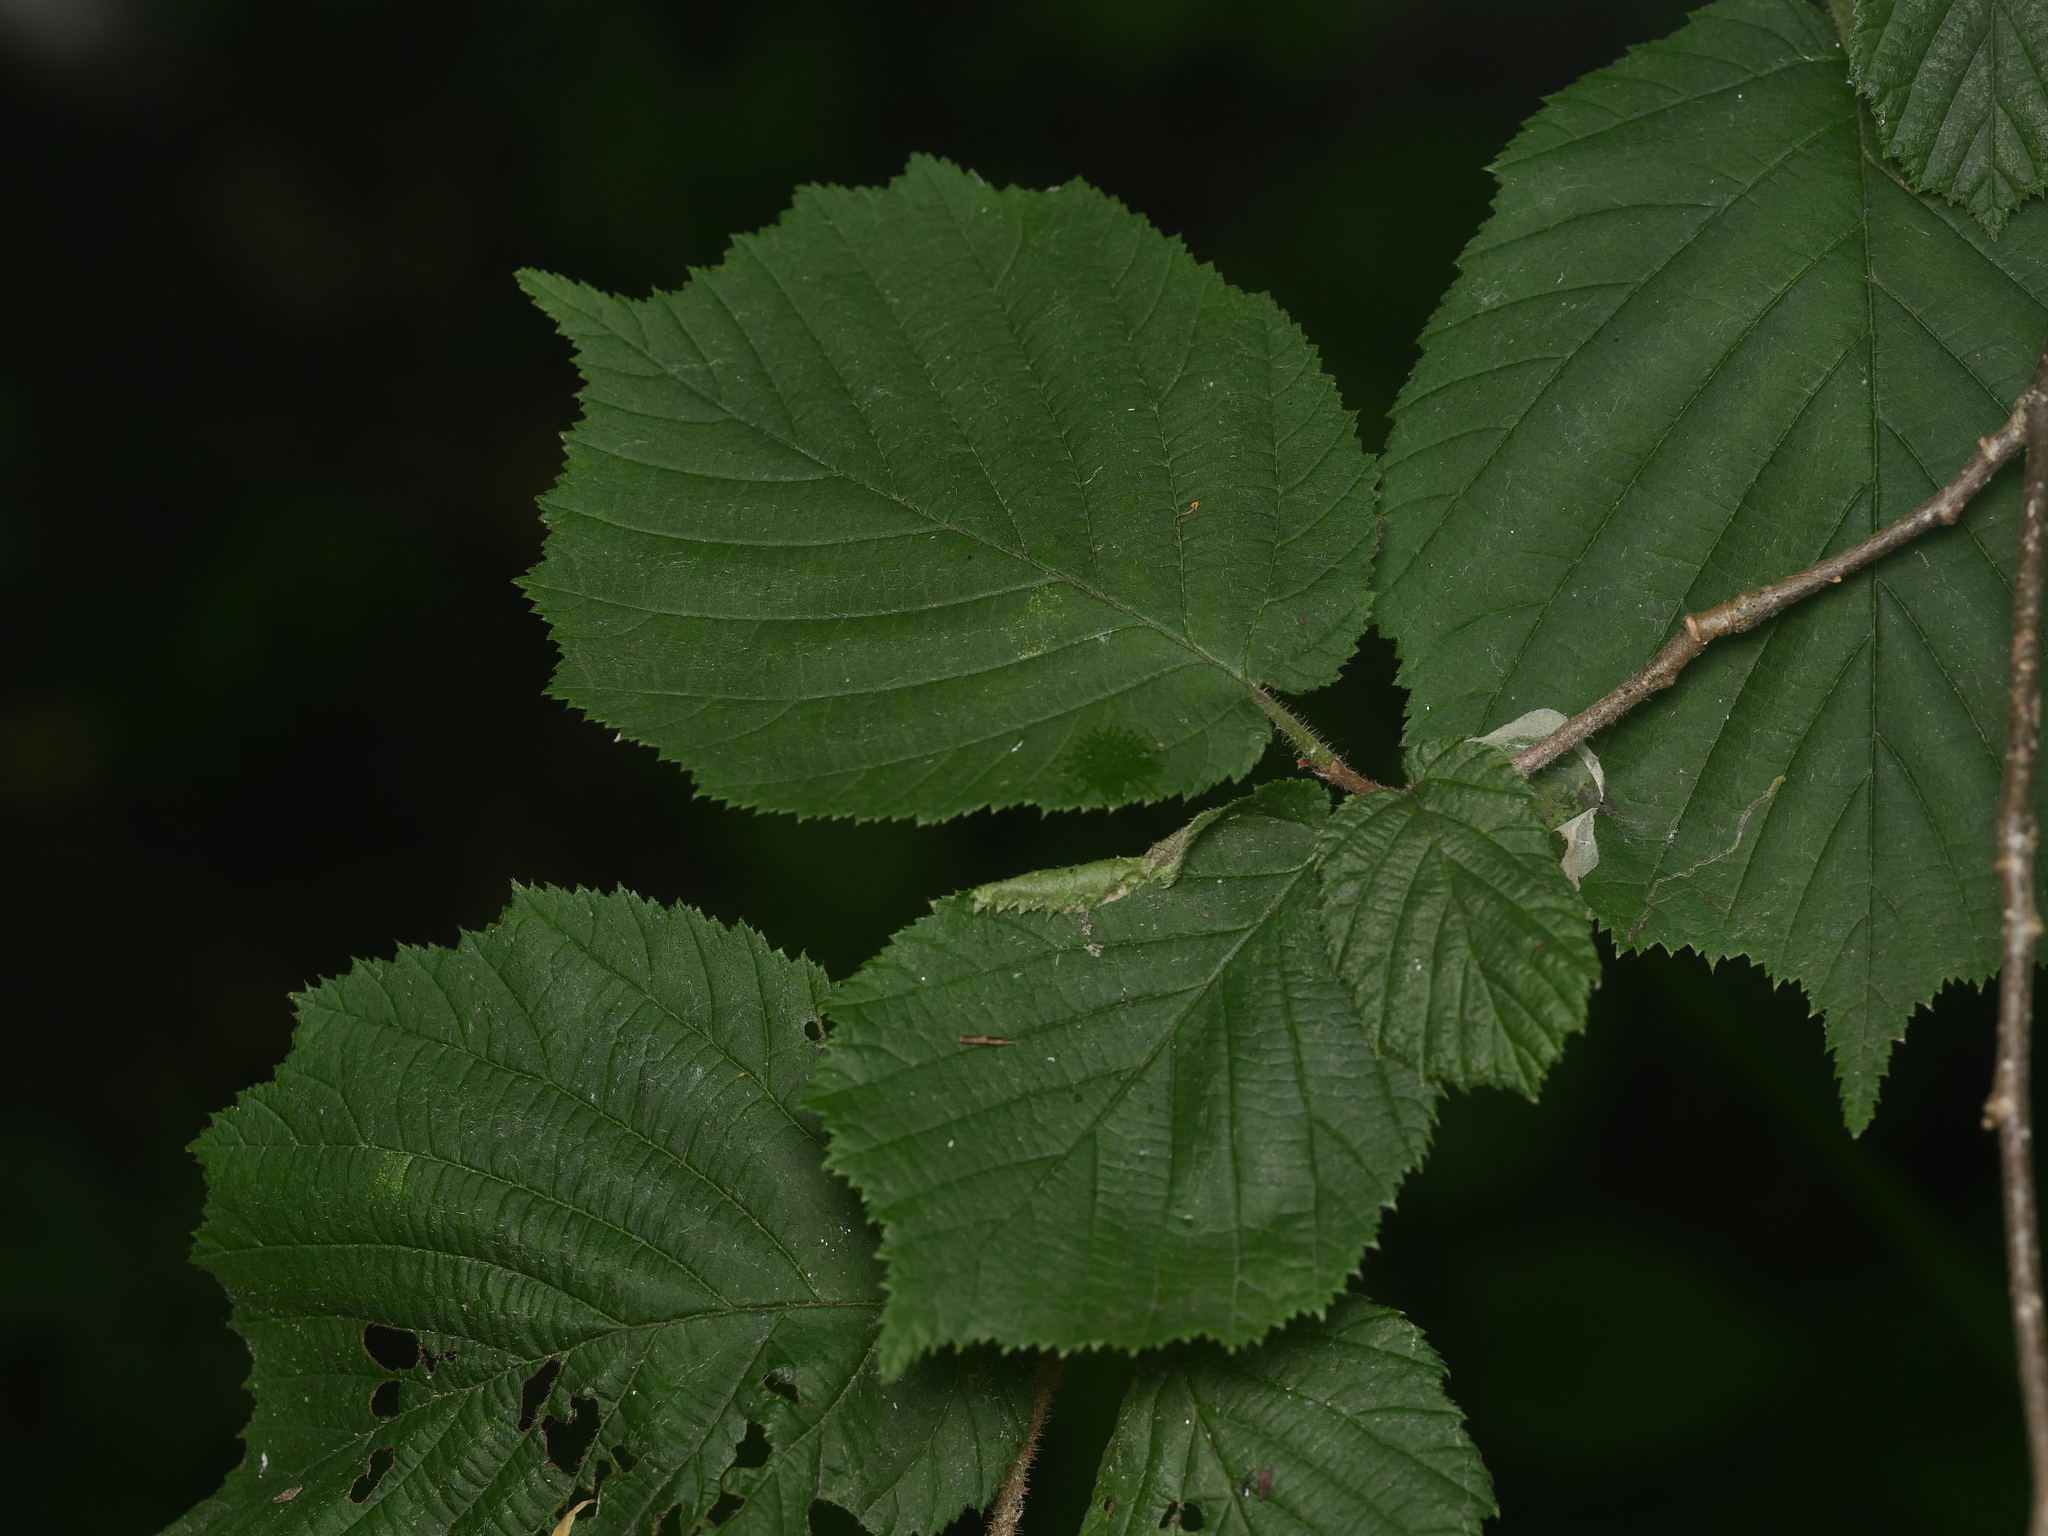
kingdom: Plantae
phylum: Tracheophyta
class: Magnoliopsida
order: Fagales
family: Betulaceae
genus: Corylus
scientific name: Corylus avellana
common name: European hazel
